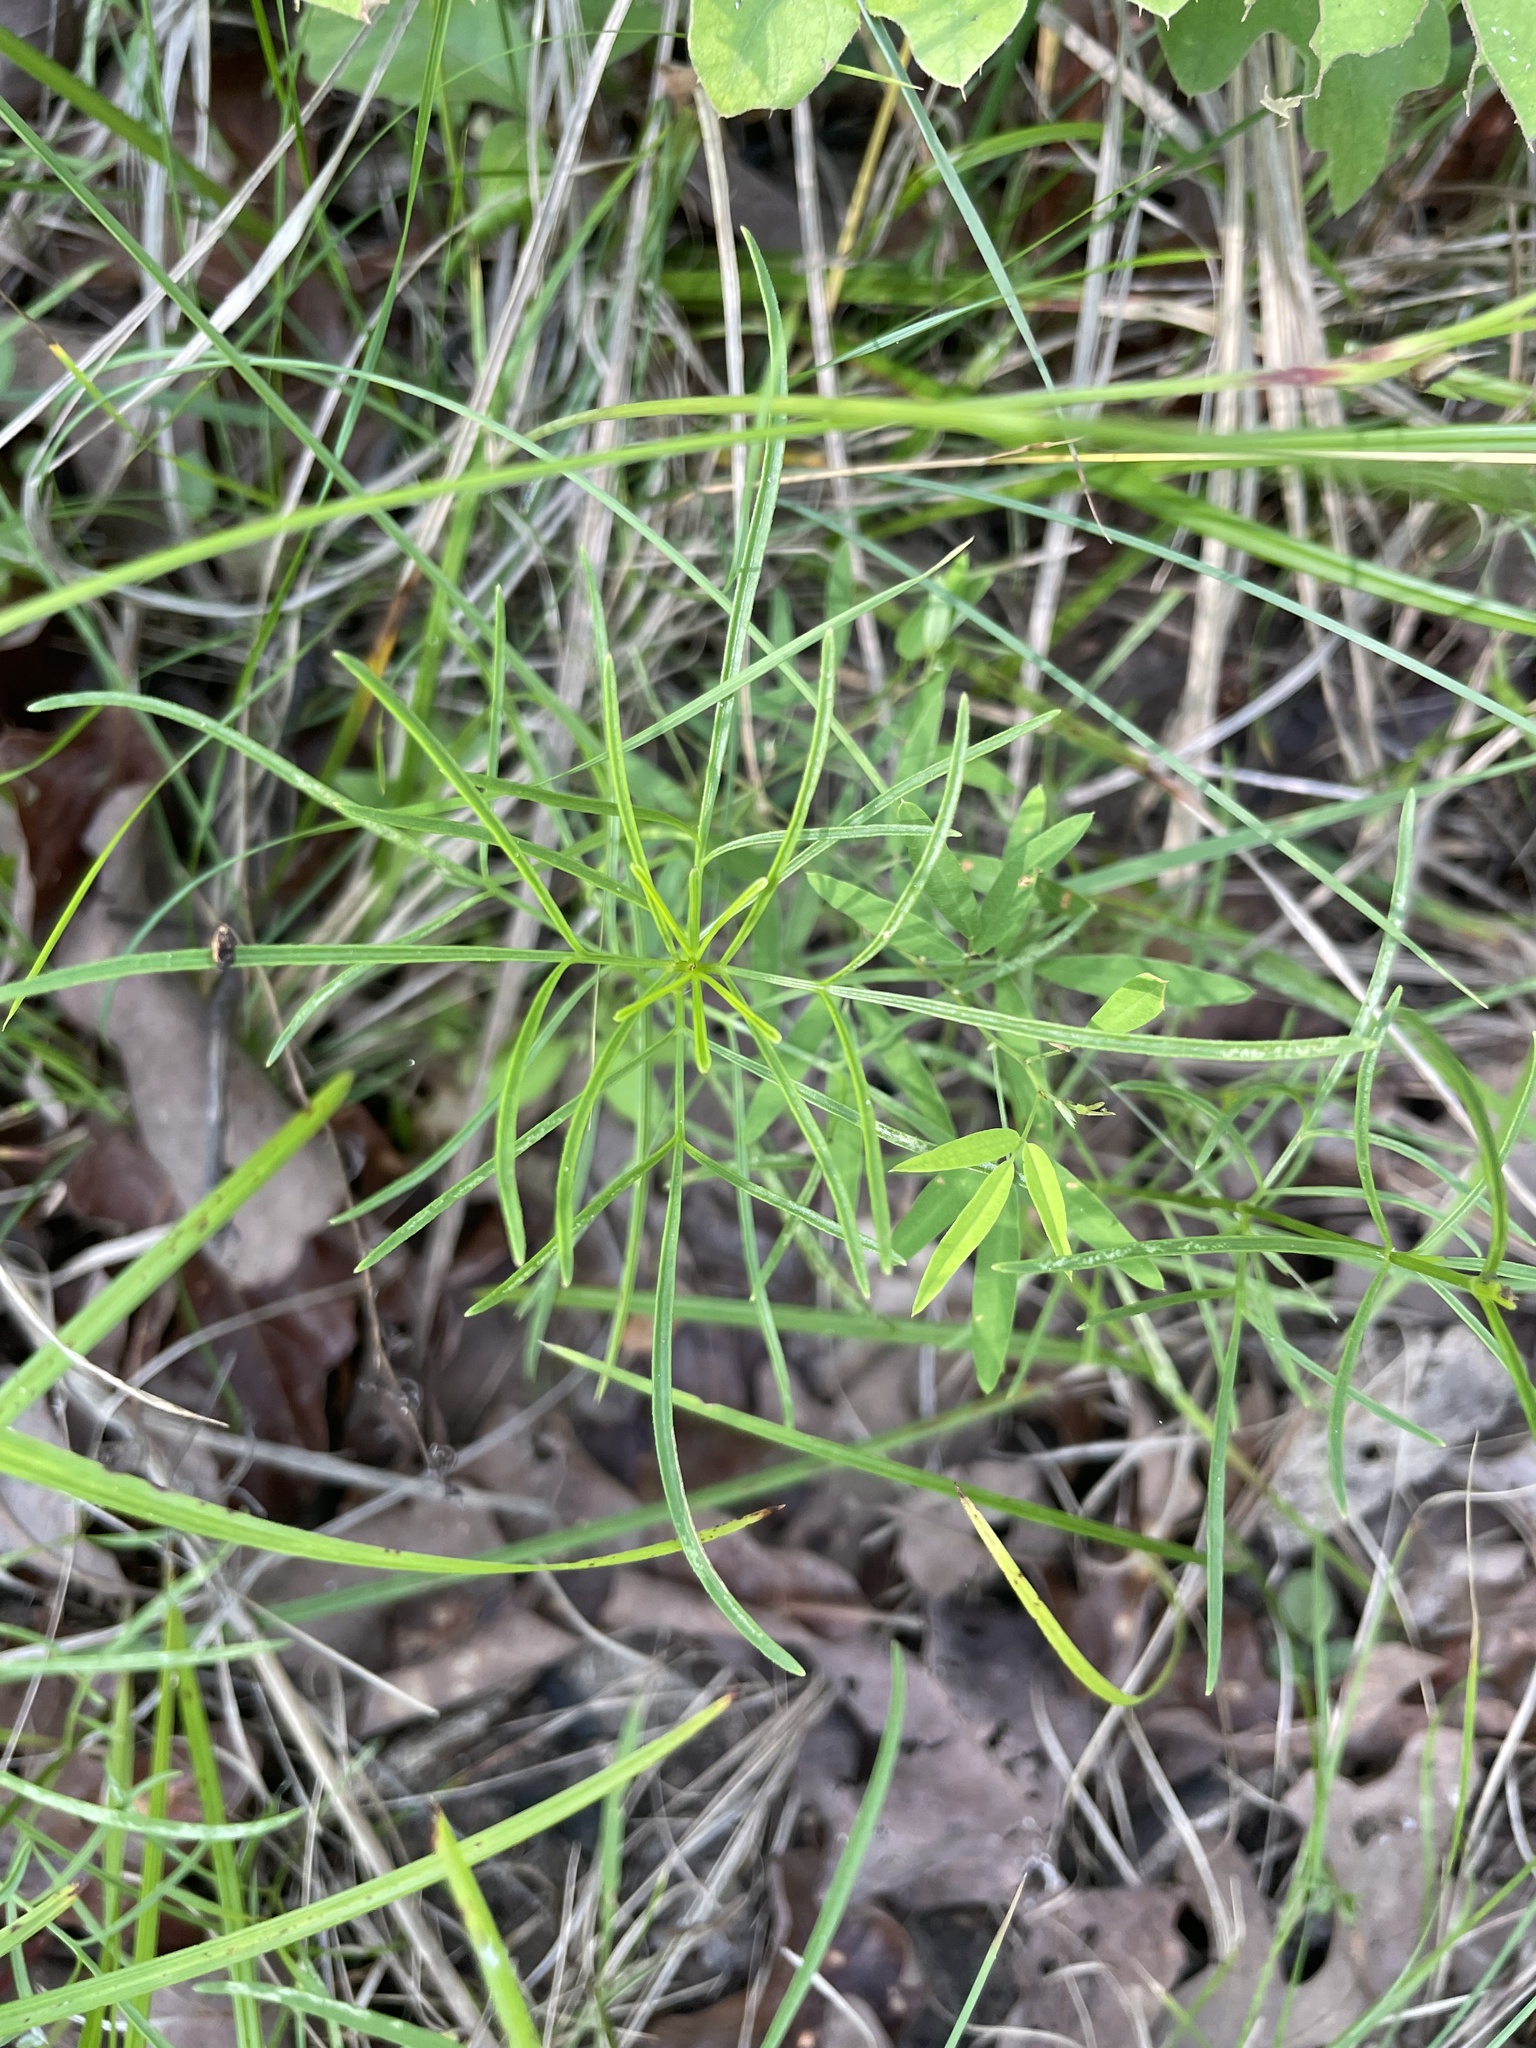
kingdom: Plantae
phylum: Tracheophyta
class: Magnoliopsida
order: Asterales
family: Asteraceae
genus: Coreopsis
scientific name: Coreopsis grandiflora
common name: Large-flowered tickseed
